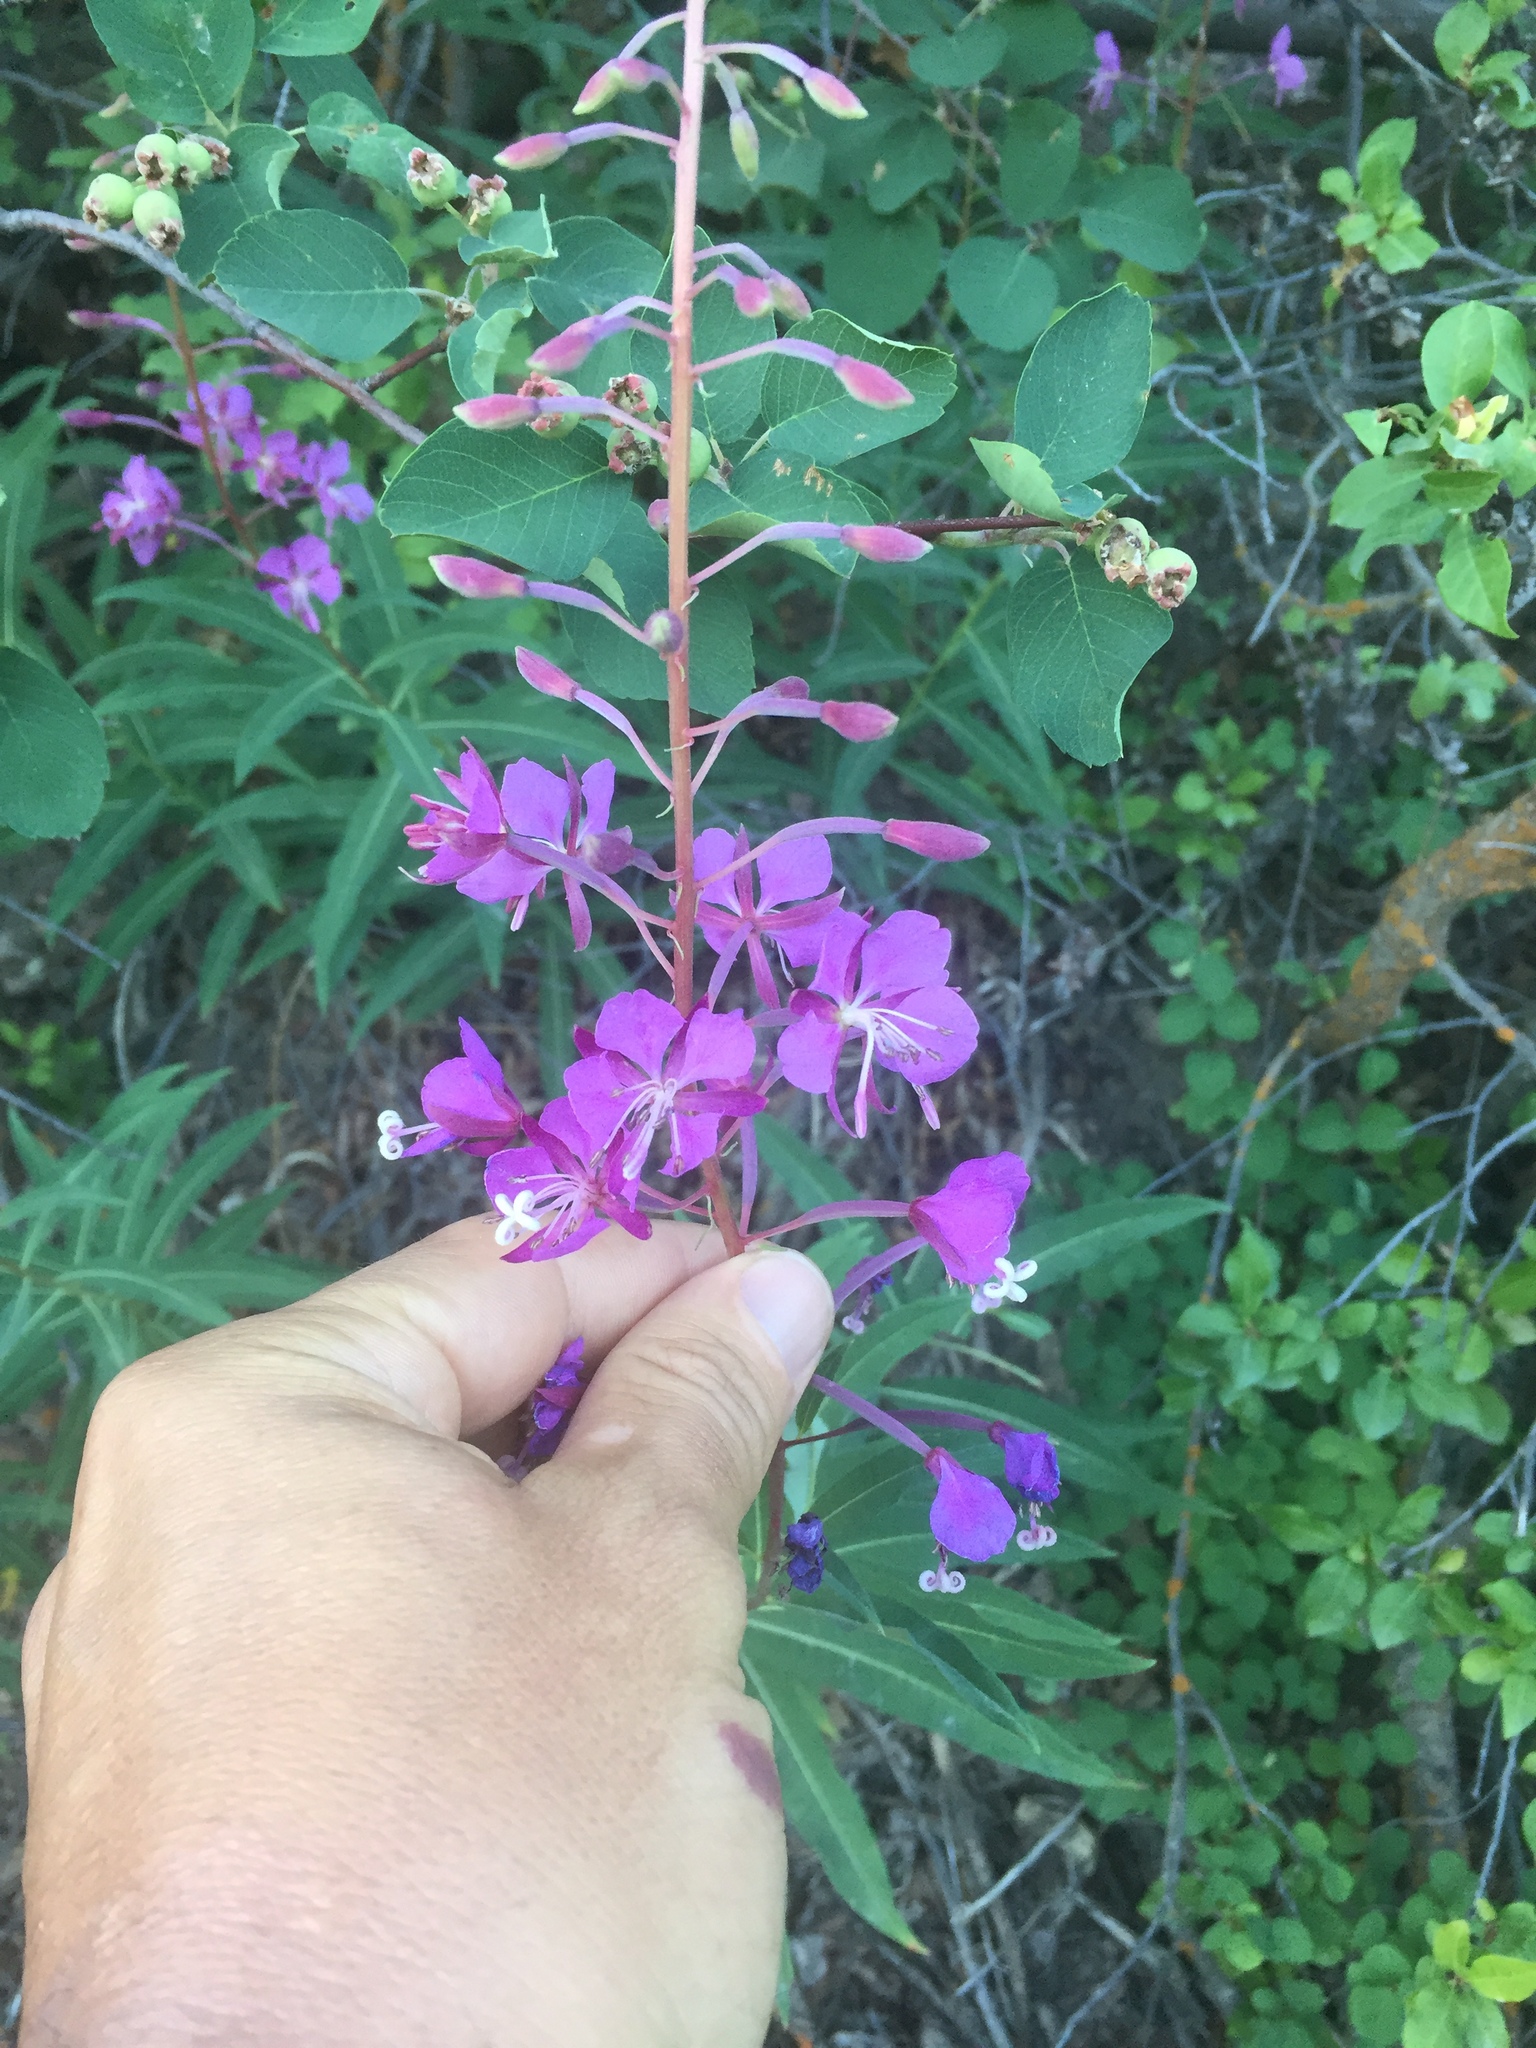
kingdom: Plantae
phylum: Tracheophyta
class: Magnoliopsida
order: Myrtales
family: Onagraceae
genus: Chamaenerion
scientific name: Chamaenerion angustifolium
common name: Fireweed
